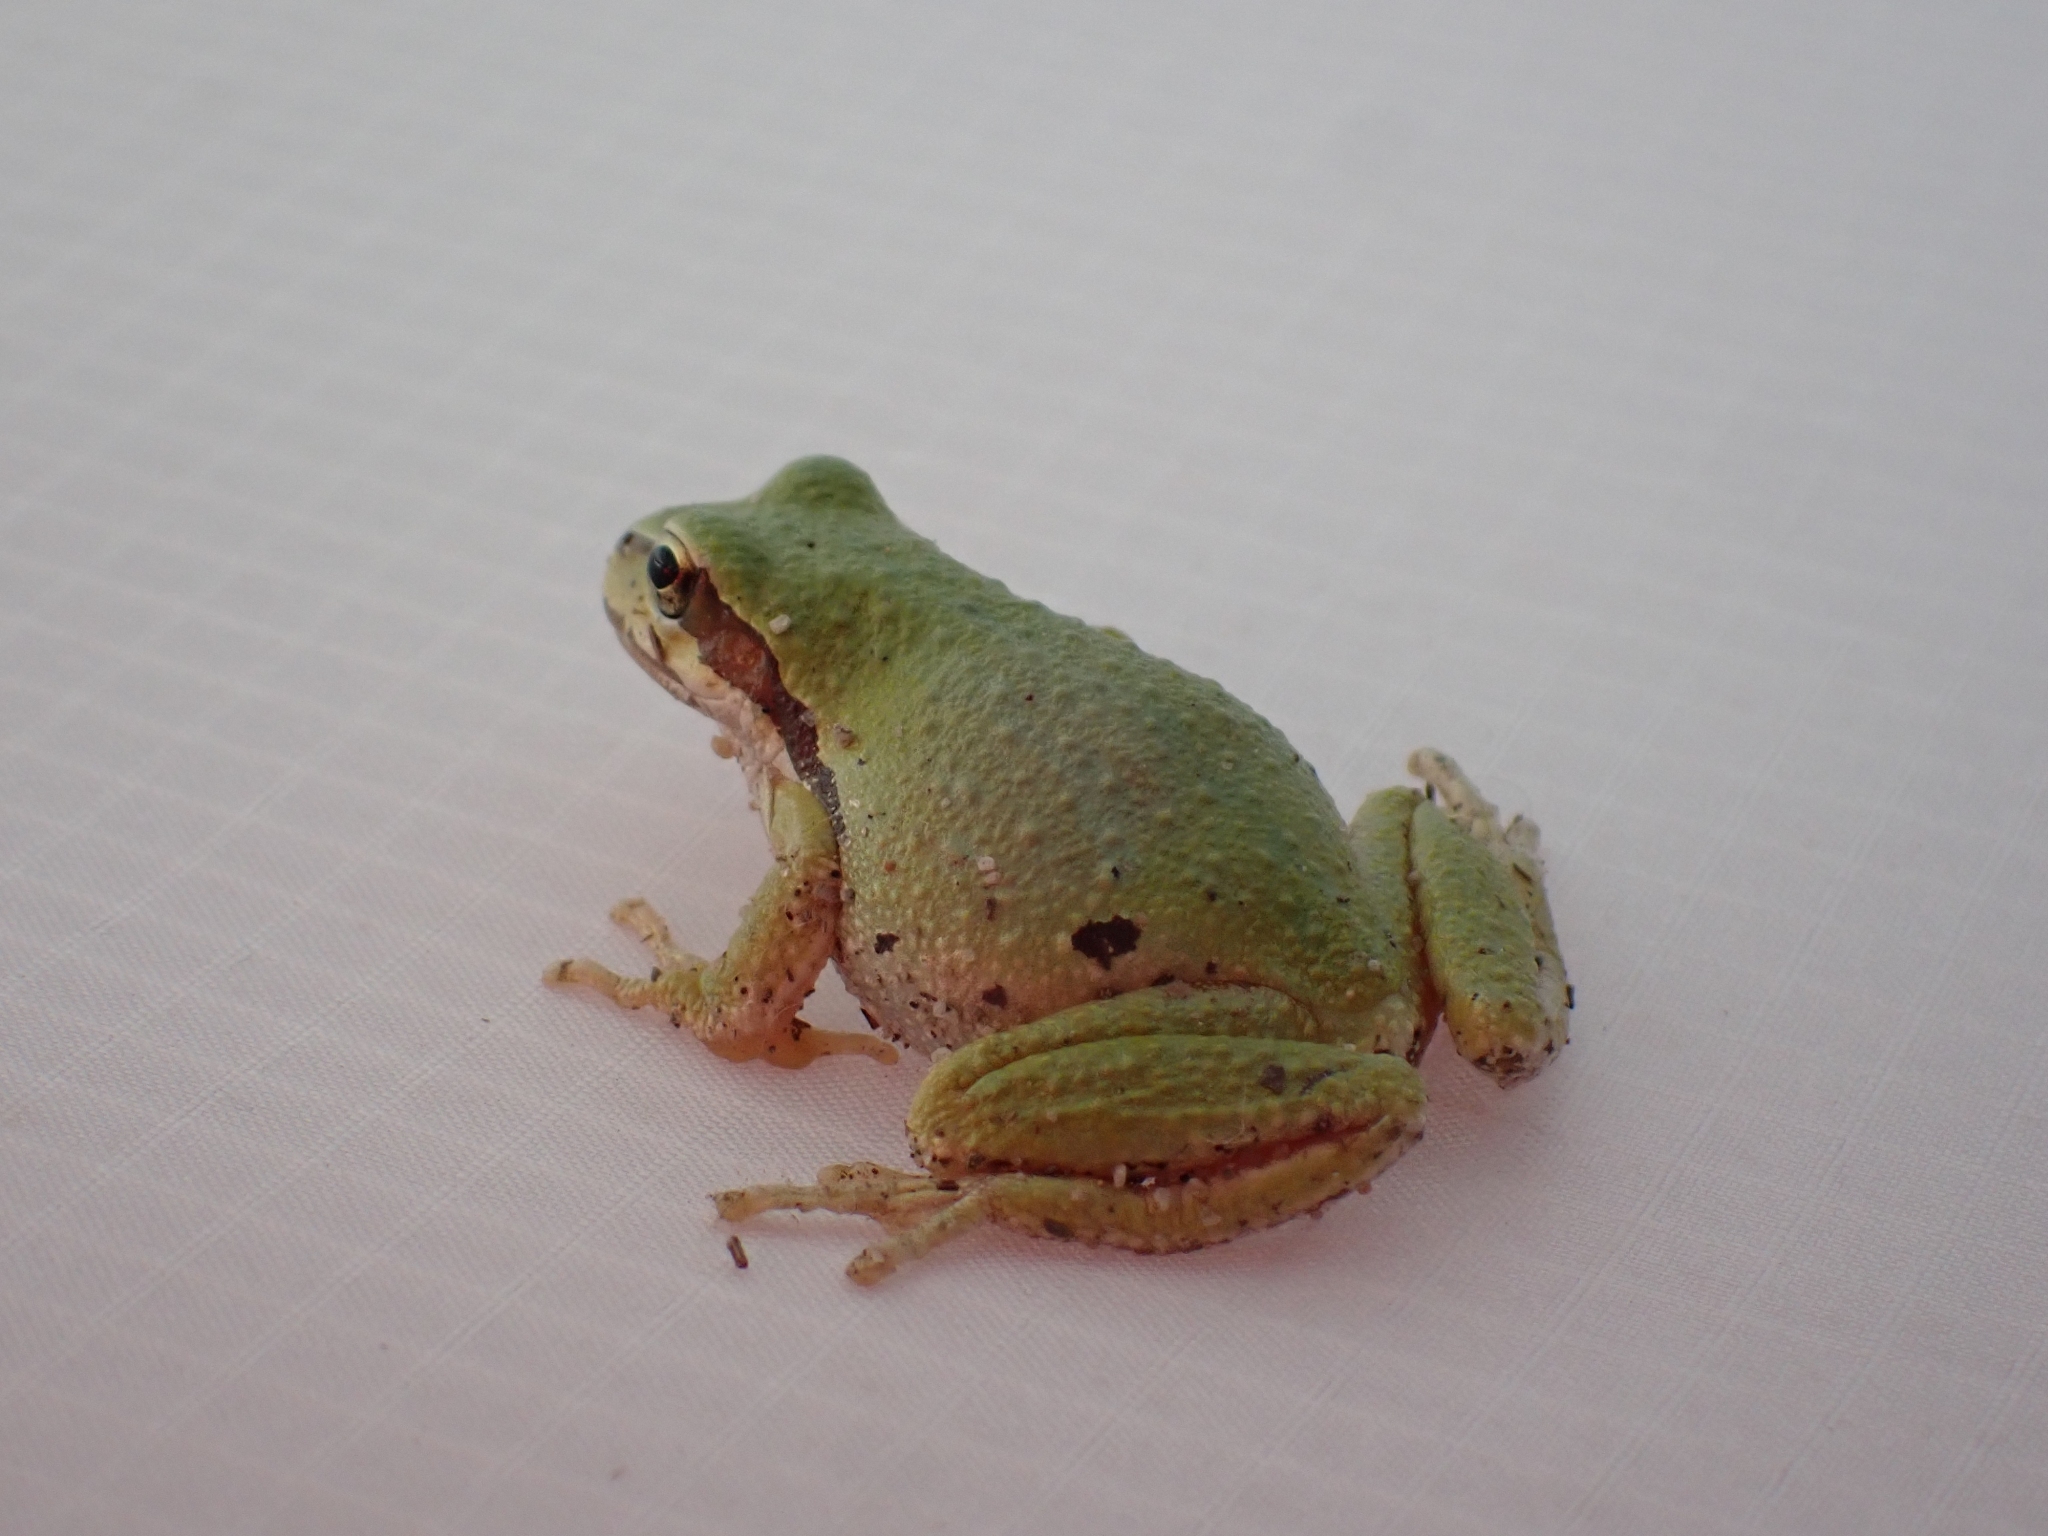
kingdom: Animalia
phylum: Chordata
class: Amphibia
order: Anura
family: Hylidae
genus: Pseudacris
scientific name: Pseudacris regilla
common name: Pacific chorus frog
